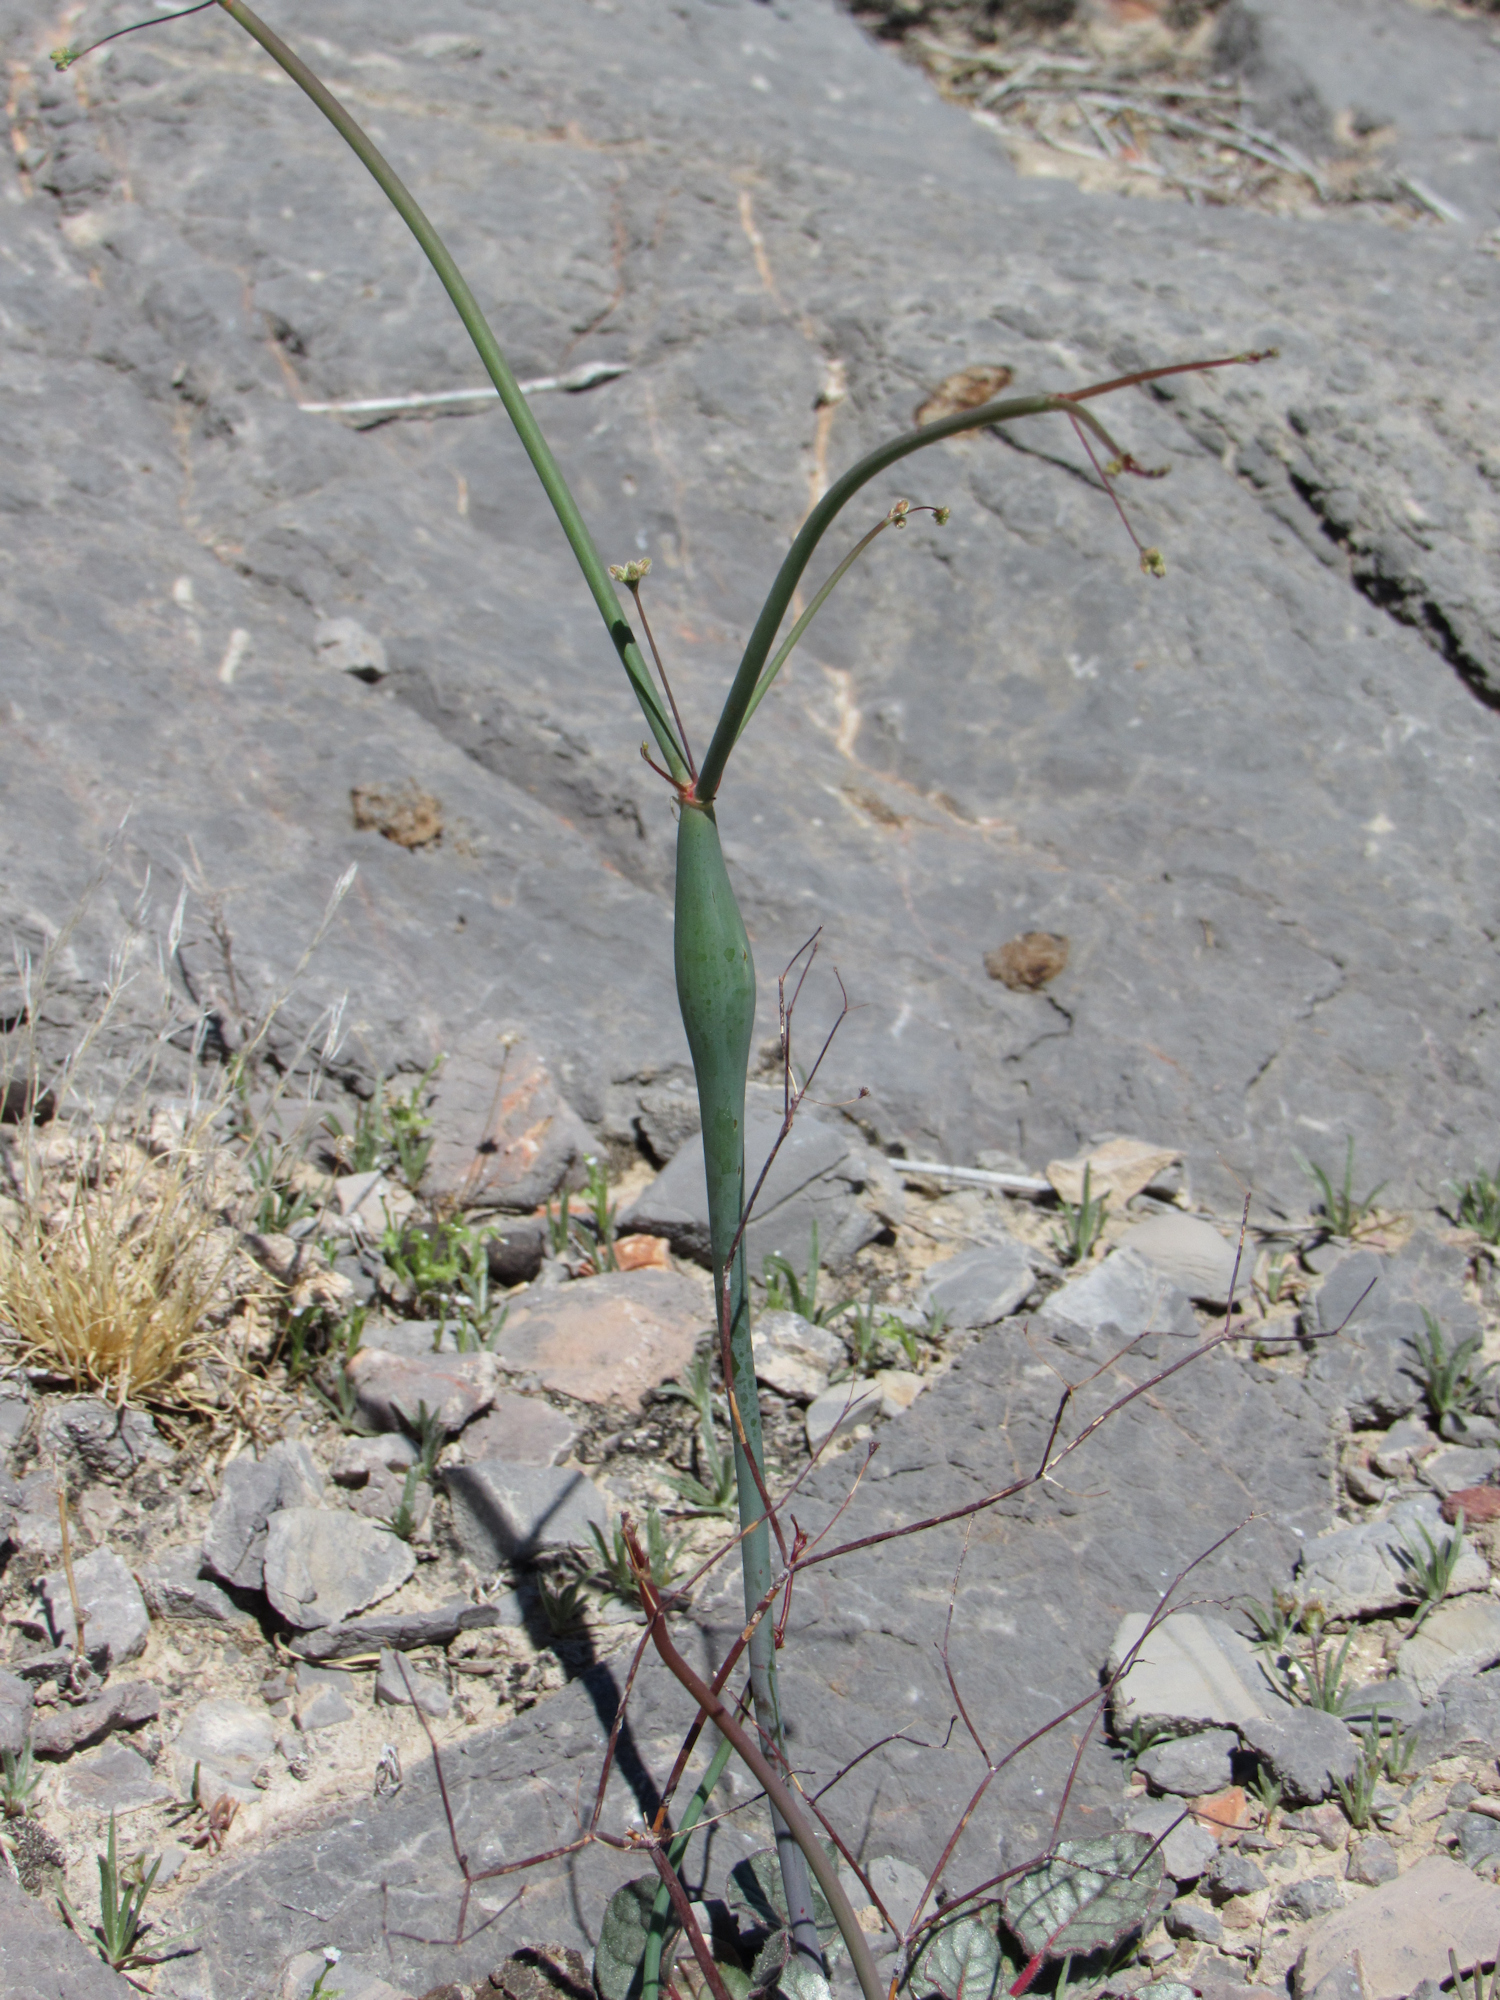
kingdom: Plantae
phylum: Tracheophyta
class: Magnoliopsida
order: Caryophyllales
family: Polygonaceae
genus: Eriogonum
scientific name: Eriogonum inflatum
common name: Desert trumpet
